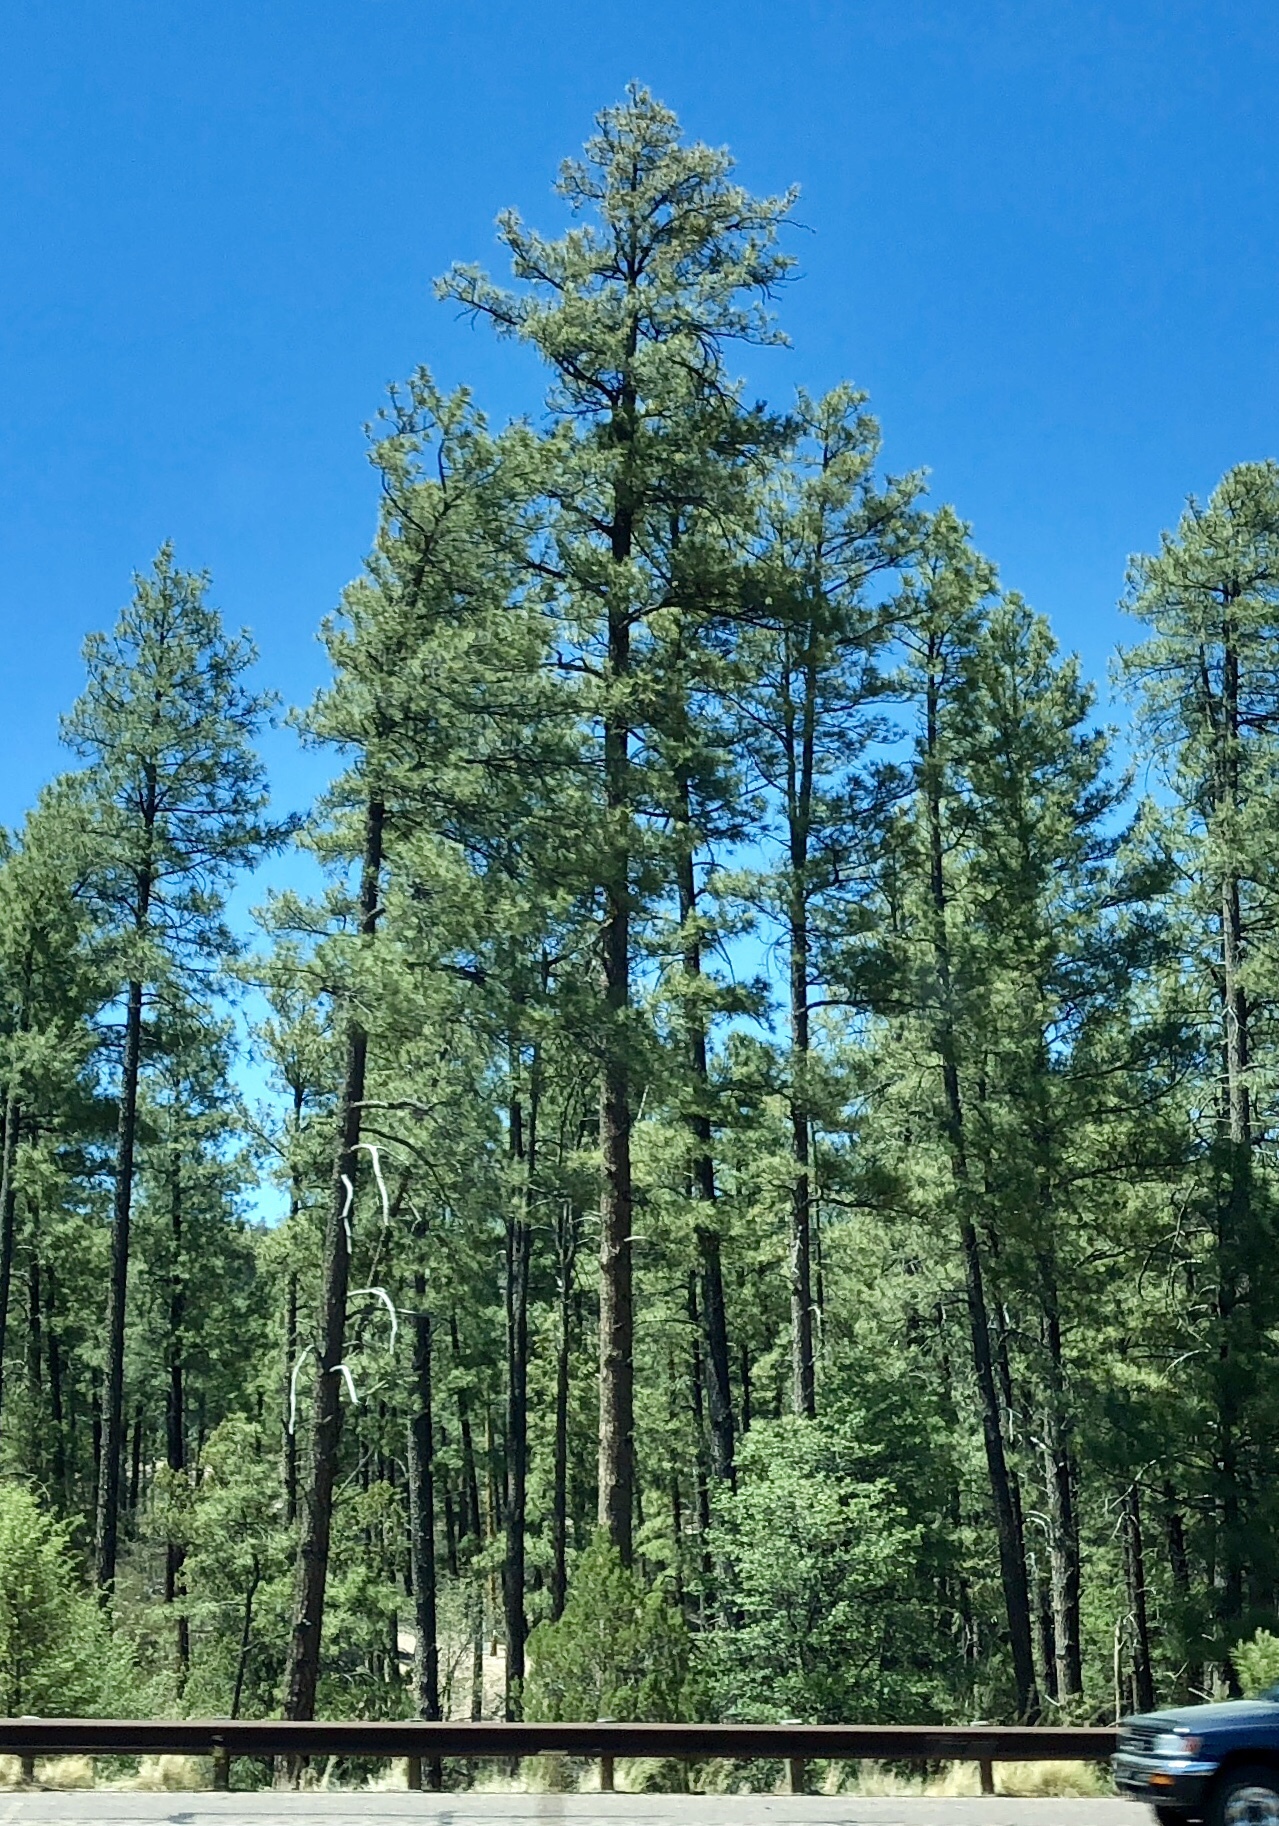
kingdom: Plantae
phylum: Tracheophyta
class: Pinopsida
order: Pinales
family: Pinaceae
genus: Pinus
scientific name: Pinus ponderosa
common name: Western yellow-pine
